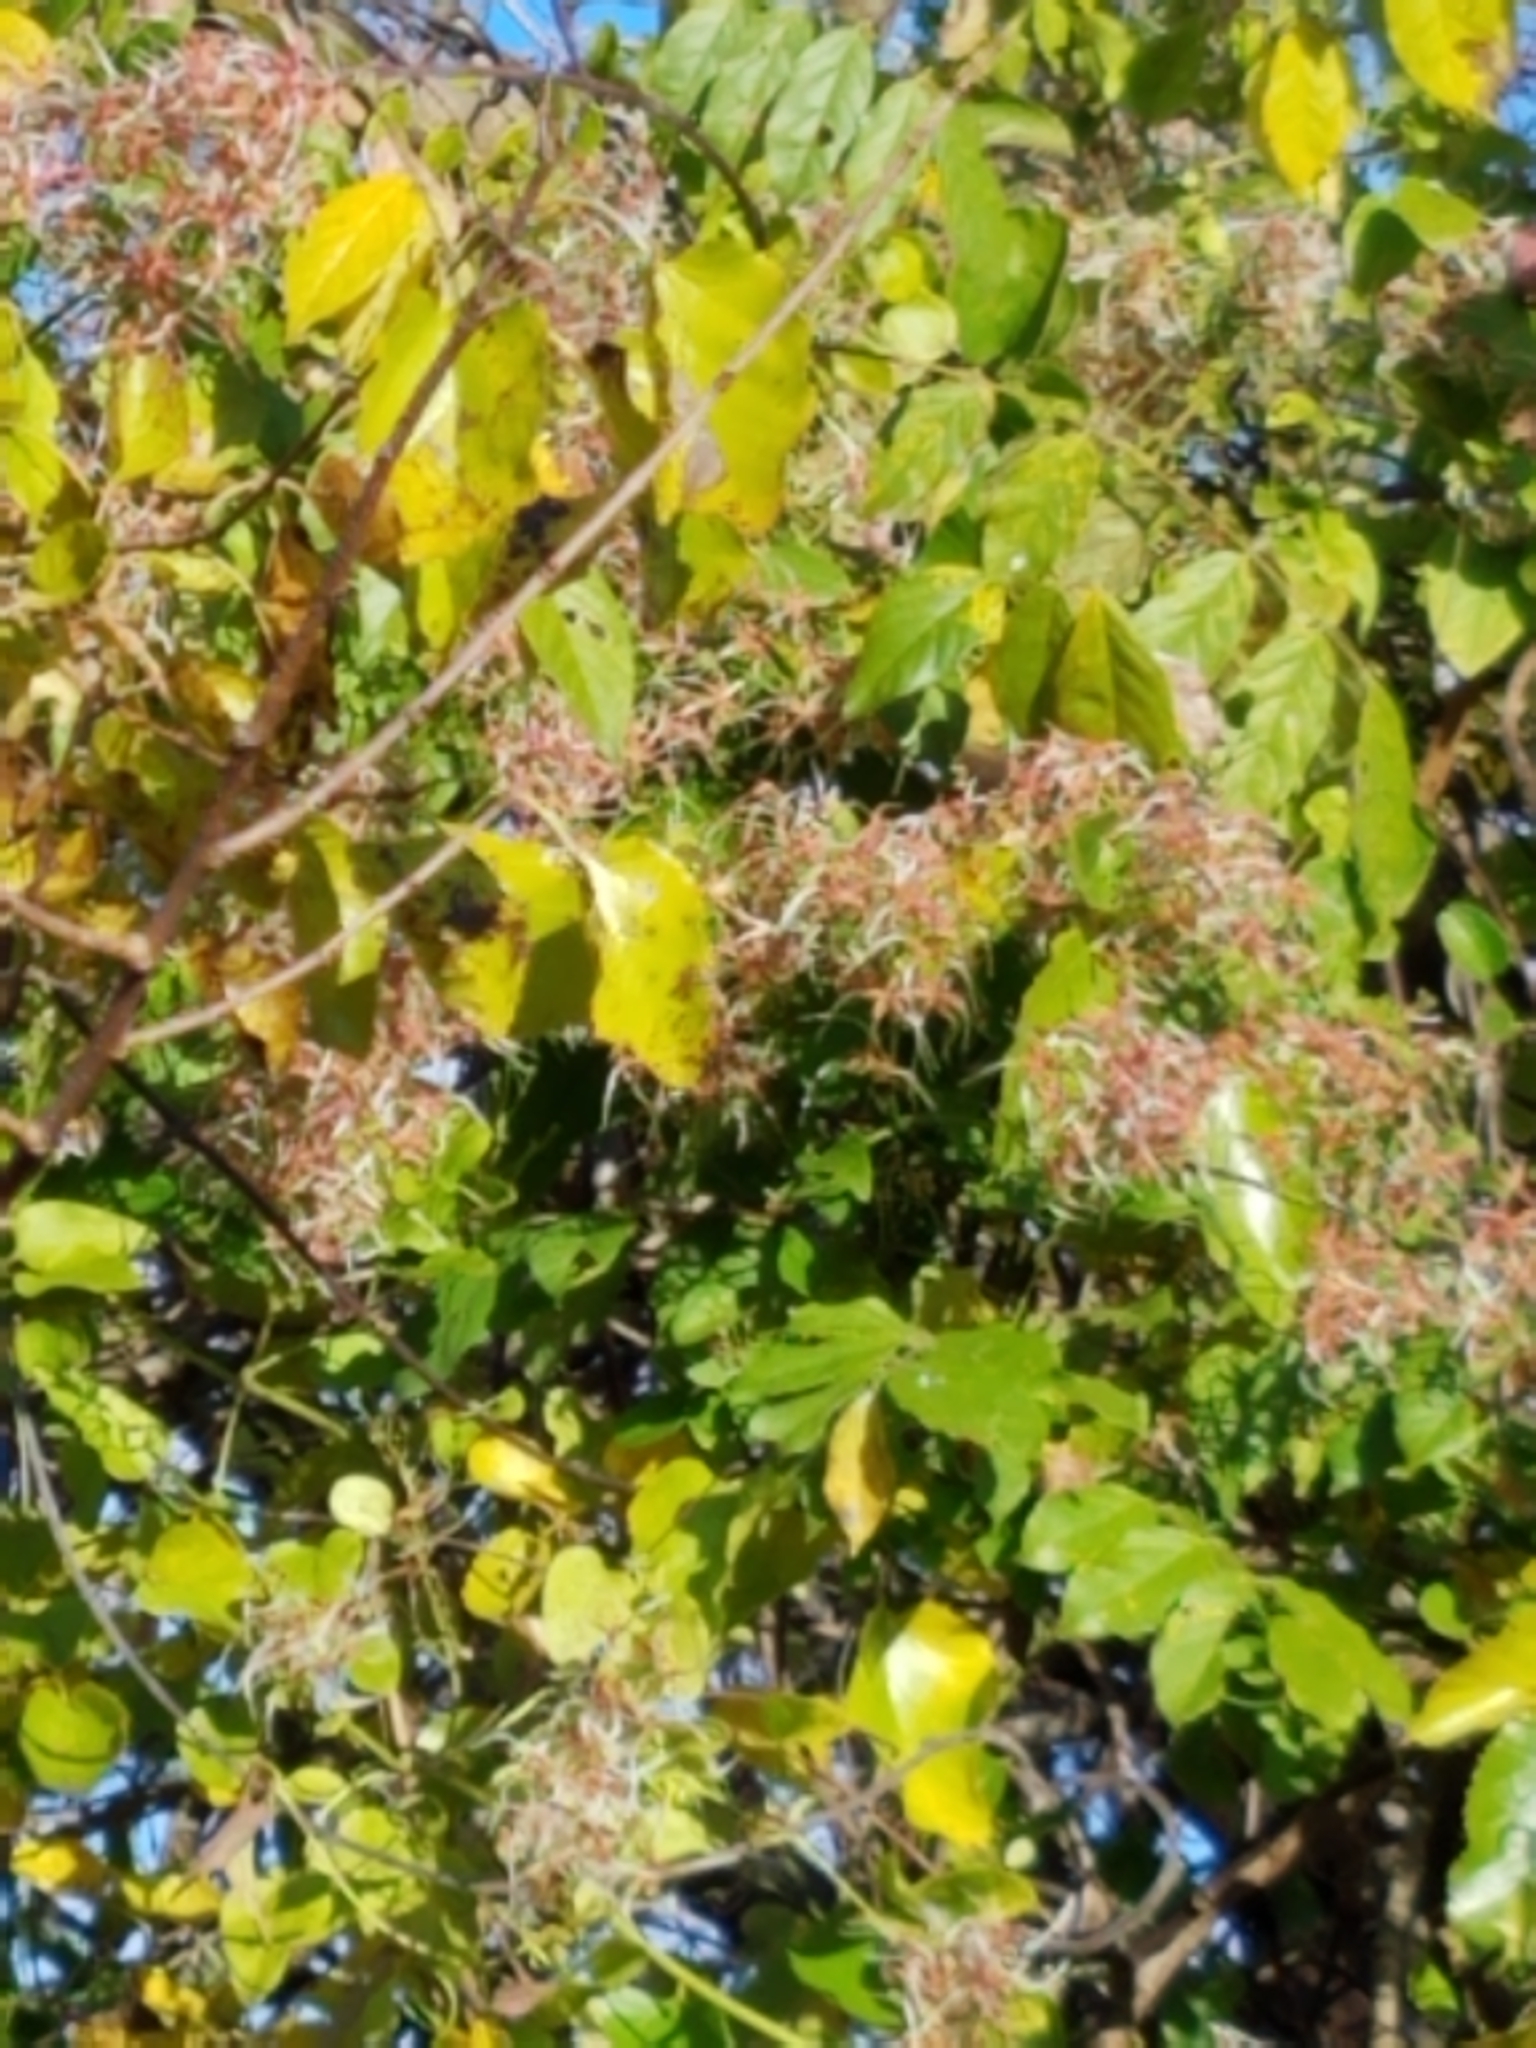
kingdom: Plantae
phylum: Tracheophyta
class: Magnoliopsida
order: Ranunculales
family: Ranunculaceae
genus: Clematis
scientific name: Clematis terniflora
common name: Sweet autumn clematis
